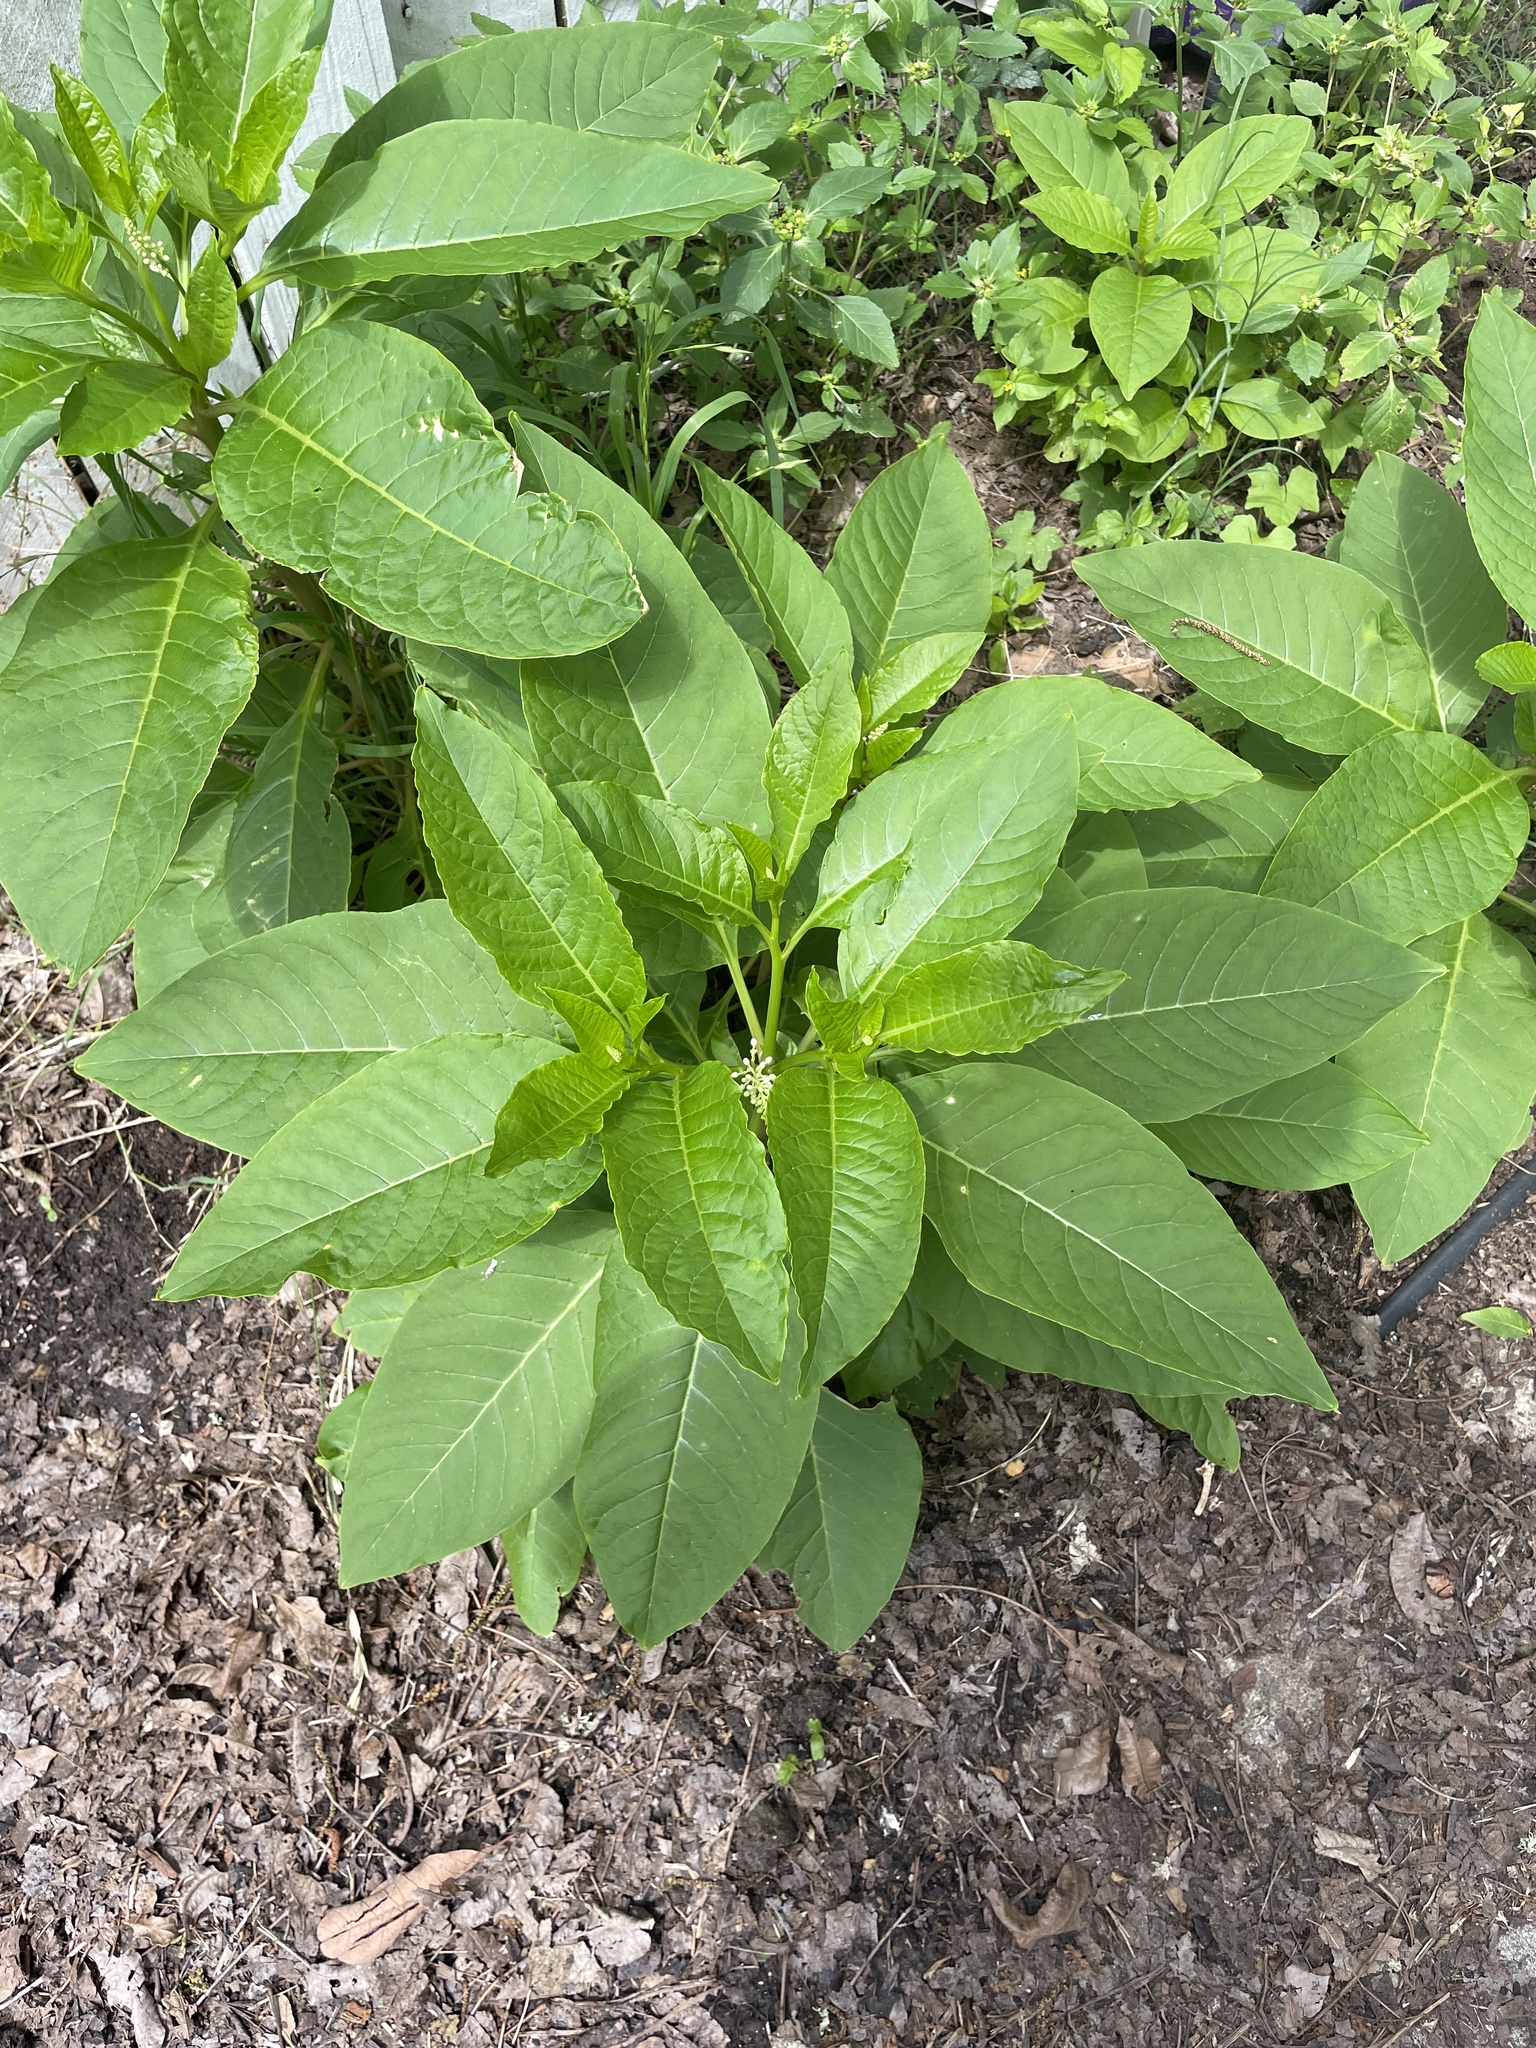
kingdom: Plantae
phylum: Tracheophyta
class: Magnoliopsida
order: Caryophyllales
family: Phytolaccaceae
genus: Phytolacca
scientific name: Phytolacca americana
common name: American pokeweed
